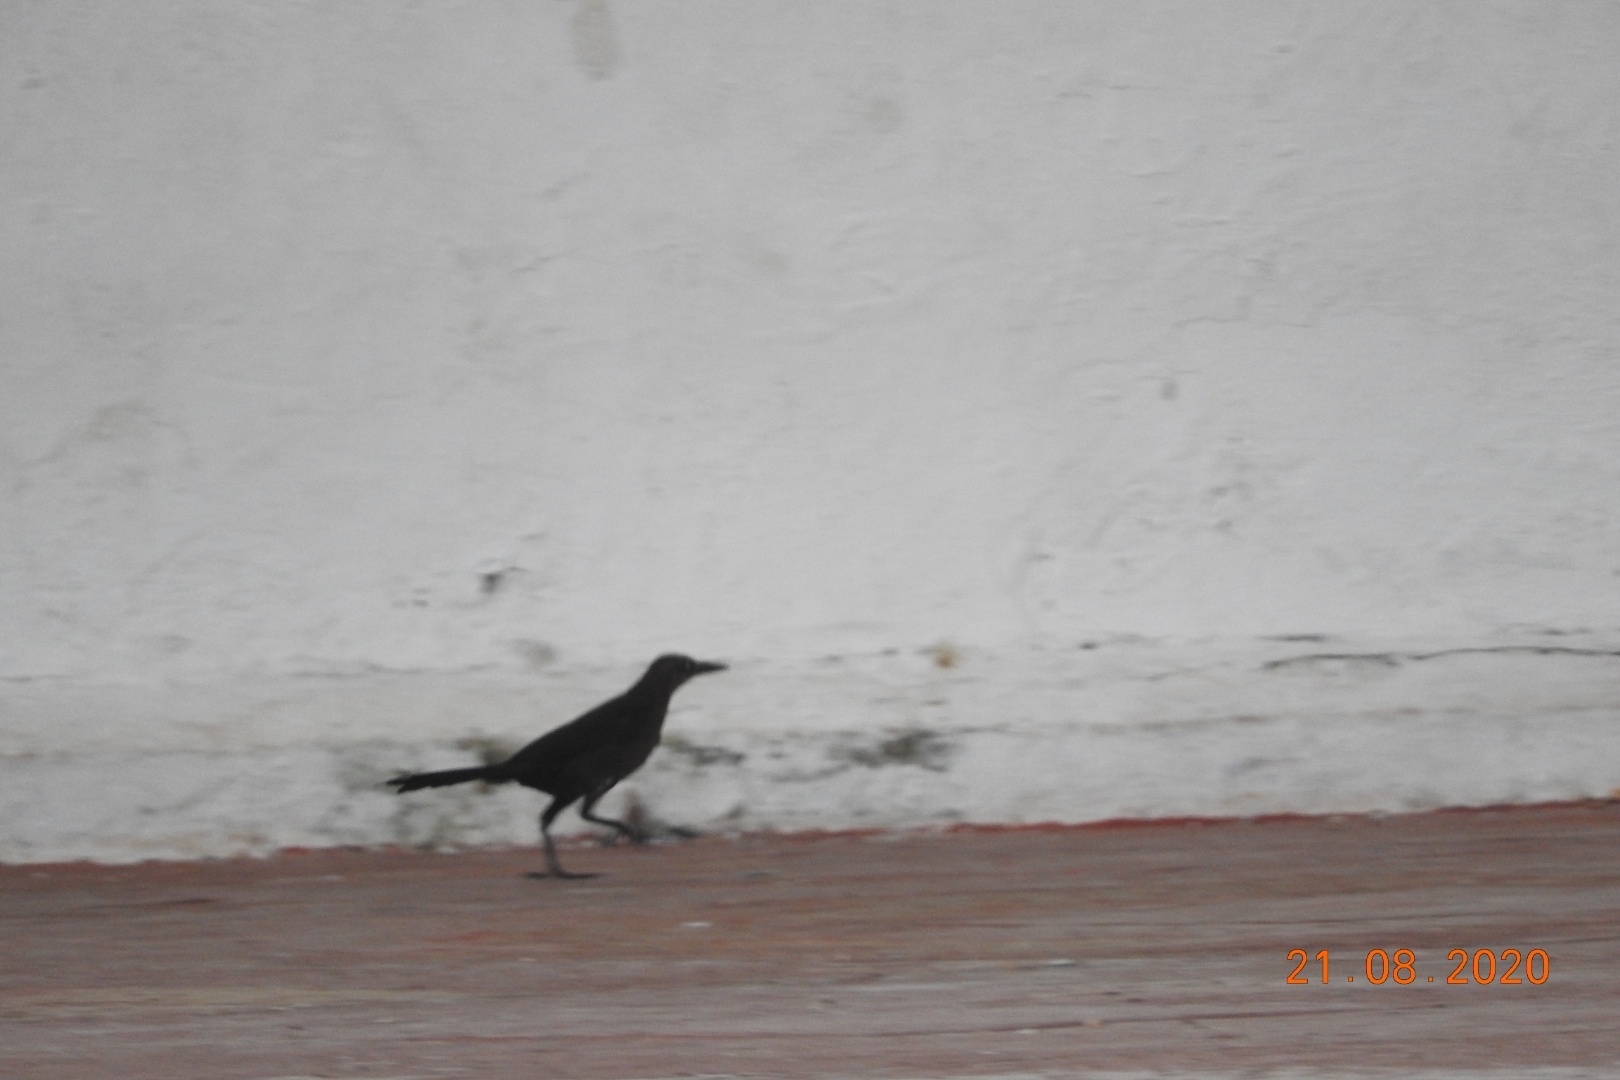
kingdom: Animalia
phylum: Chordata
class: Aves
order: Passeriformes
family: Icteridae
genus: Quiscalus
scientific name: Quiscalus mexicanus
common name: Great-tailed grackle
